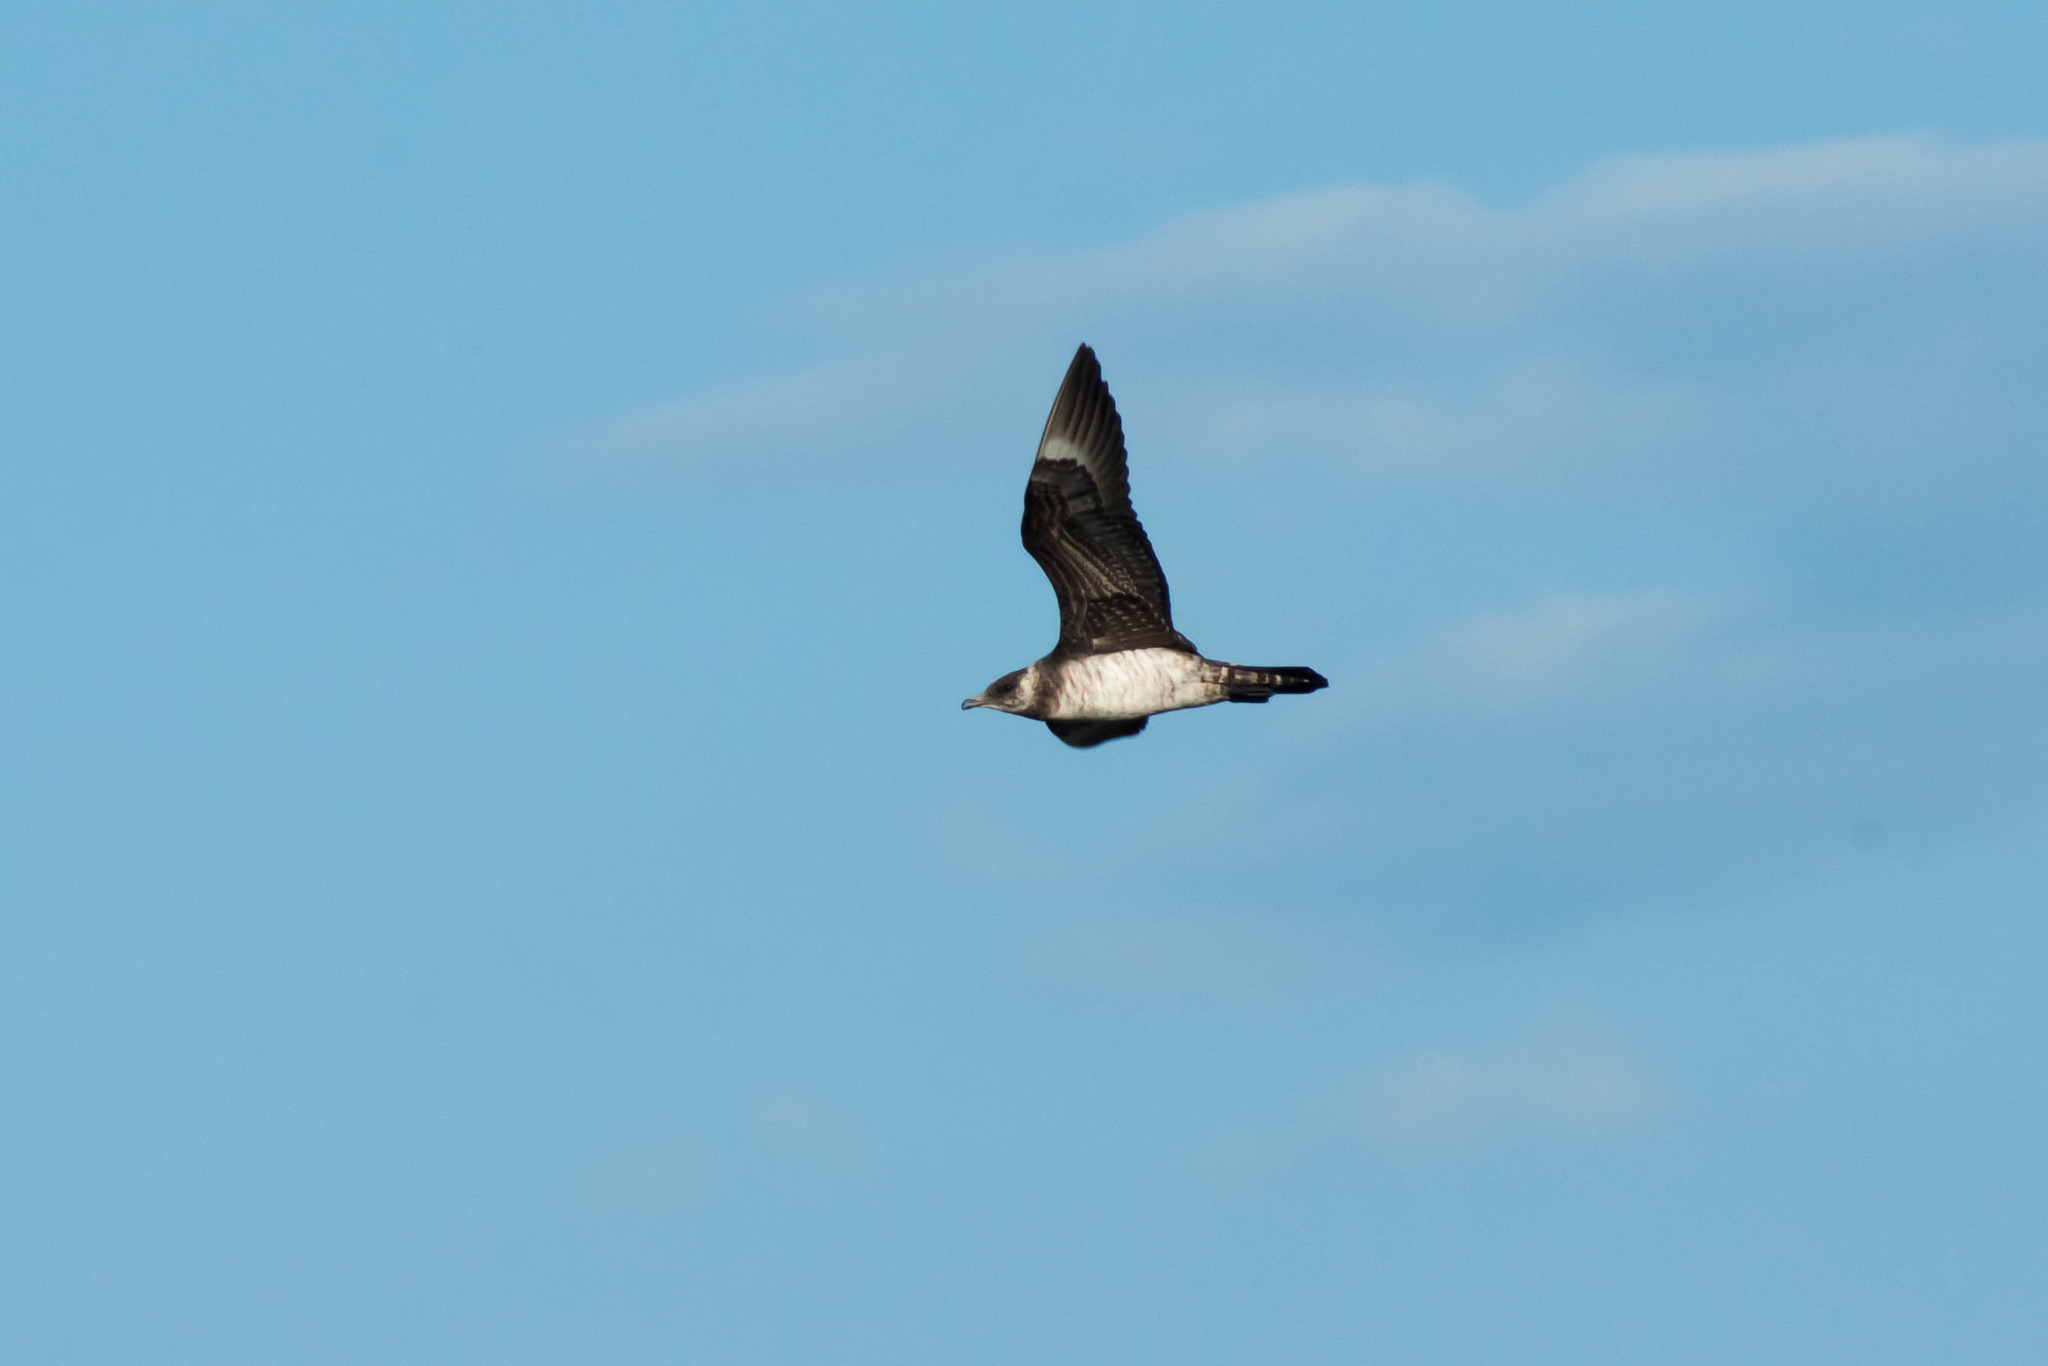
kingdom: Animalia
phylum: Chordata
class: Aves
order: Charadriiformes
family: Stercorariidae
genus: Stercorarius
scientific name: Stercorarius parasiticus
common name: Parasitic jaeger
